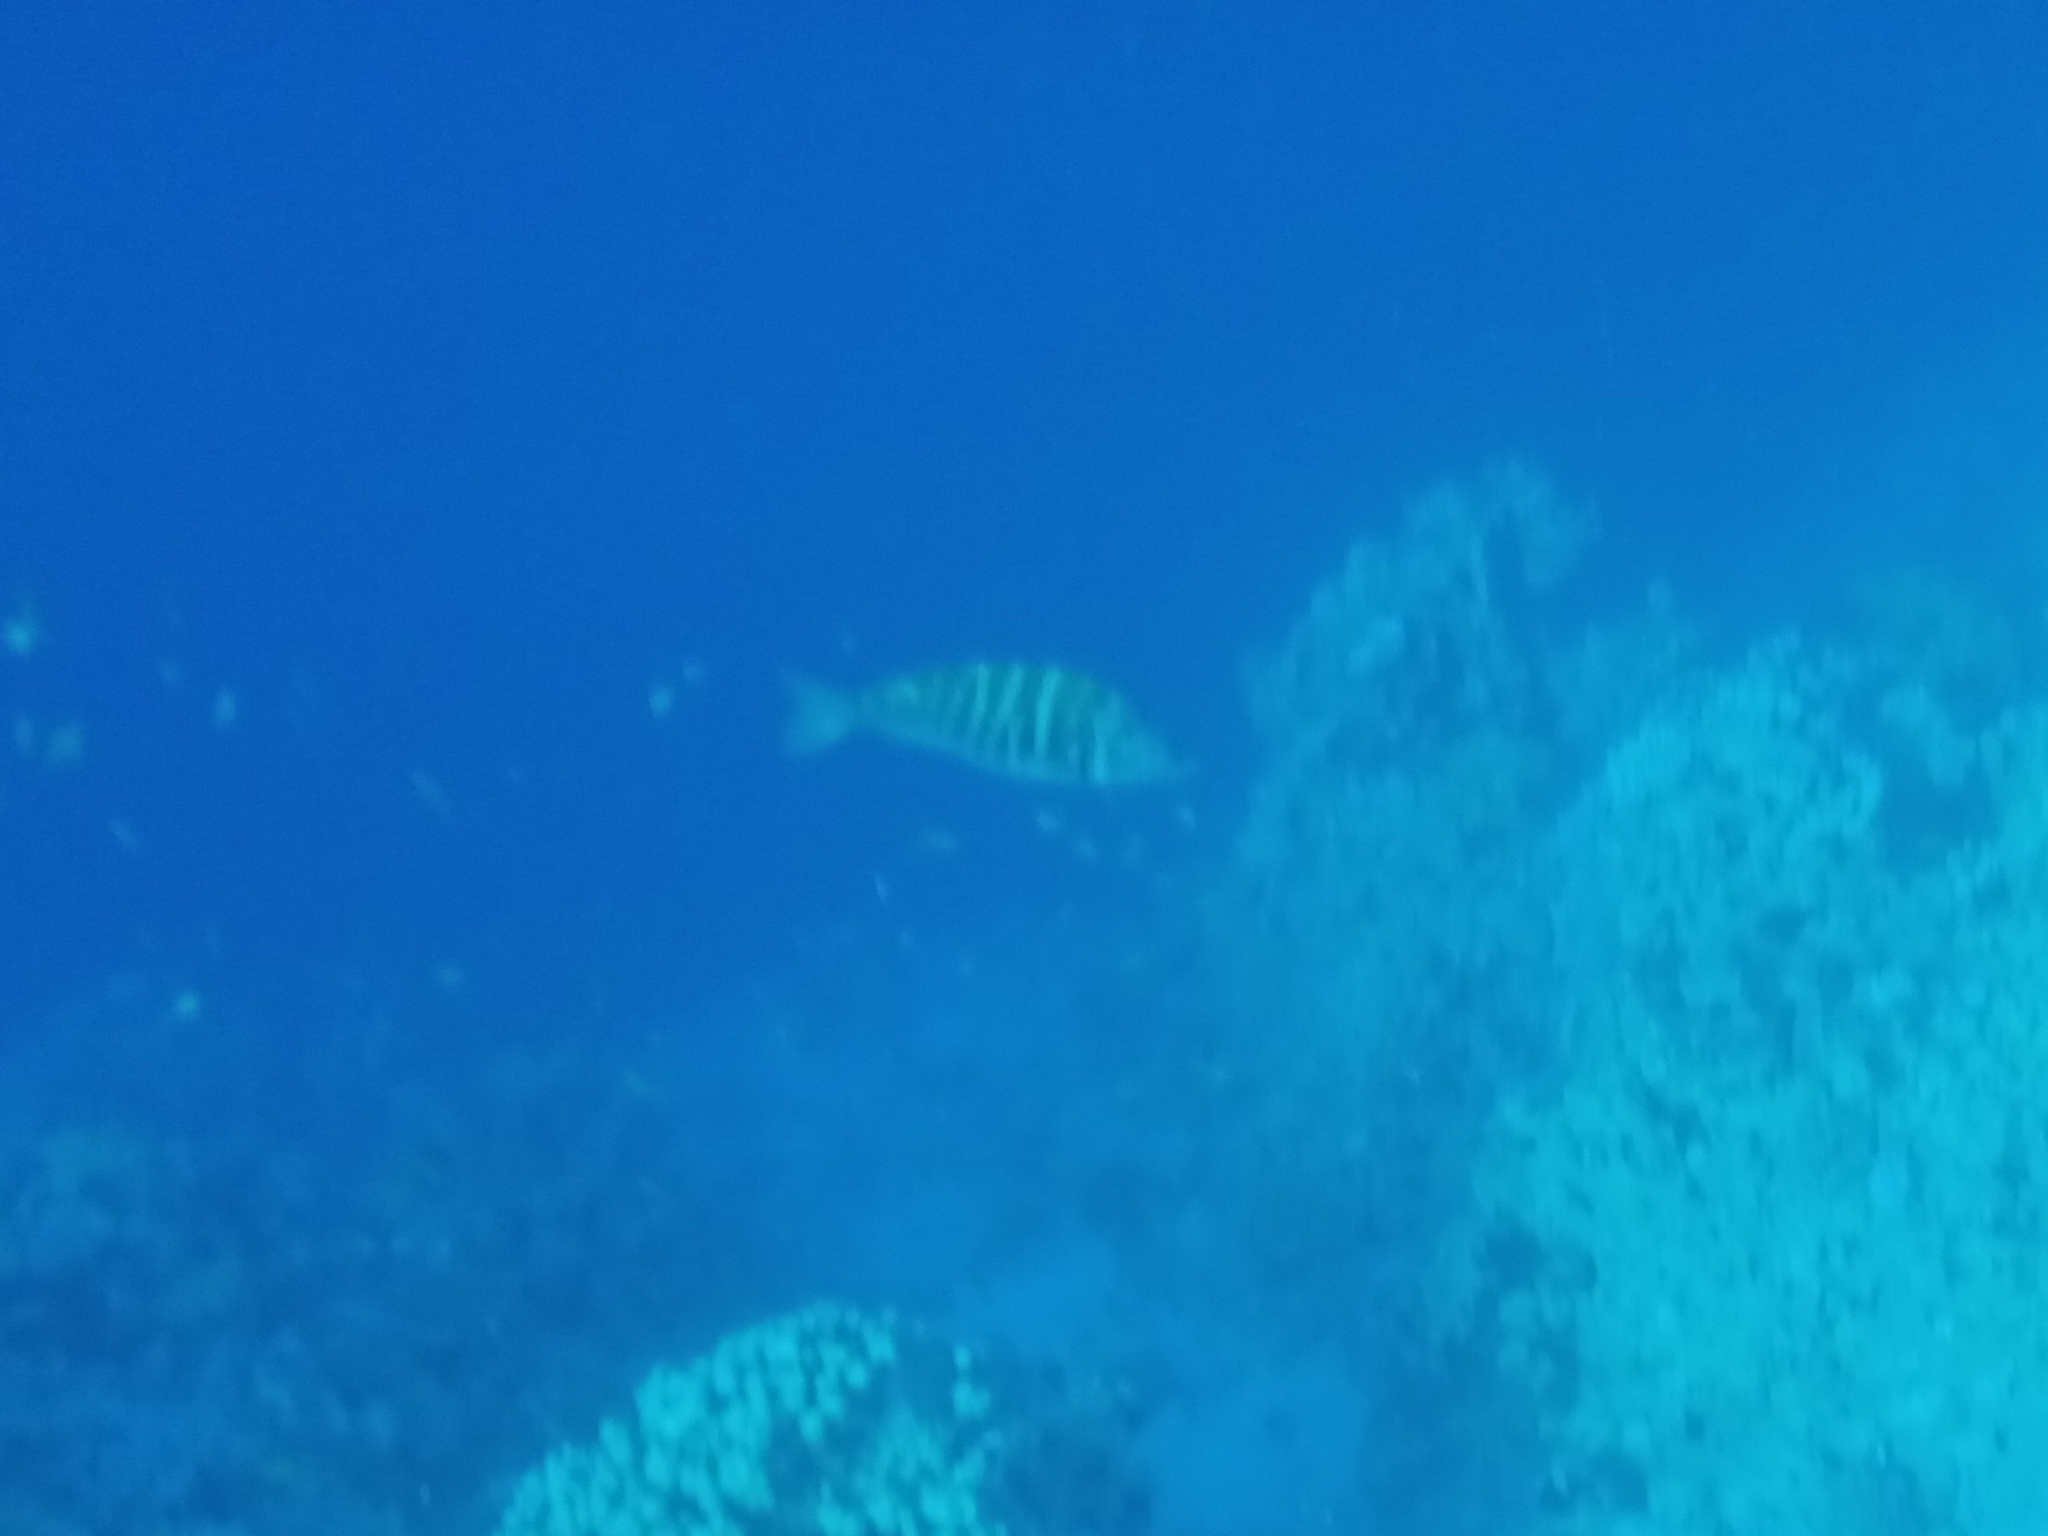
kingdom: Animalia
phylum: Chordata
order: Perciformes
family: Lethrinidae
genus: Lethrinus
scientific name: Lethrinus mahsena
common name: Sky emperor
